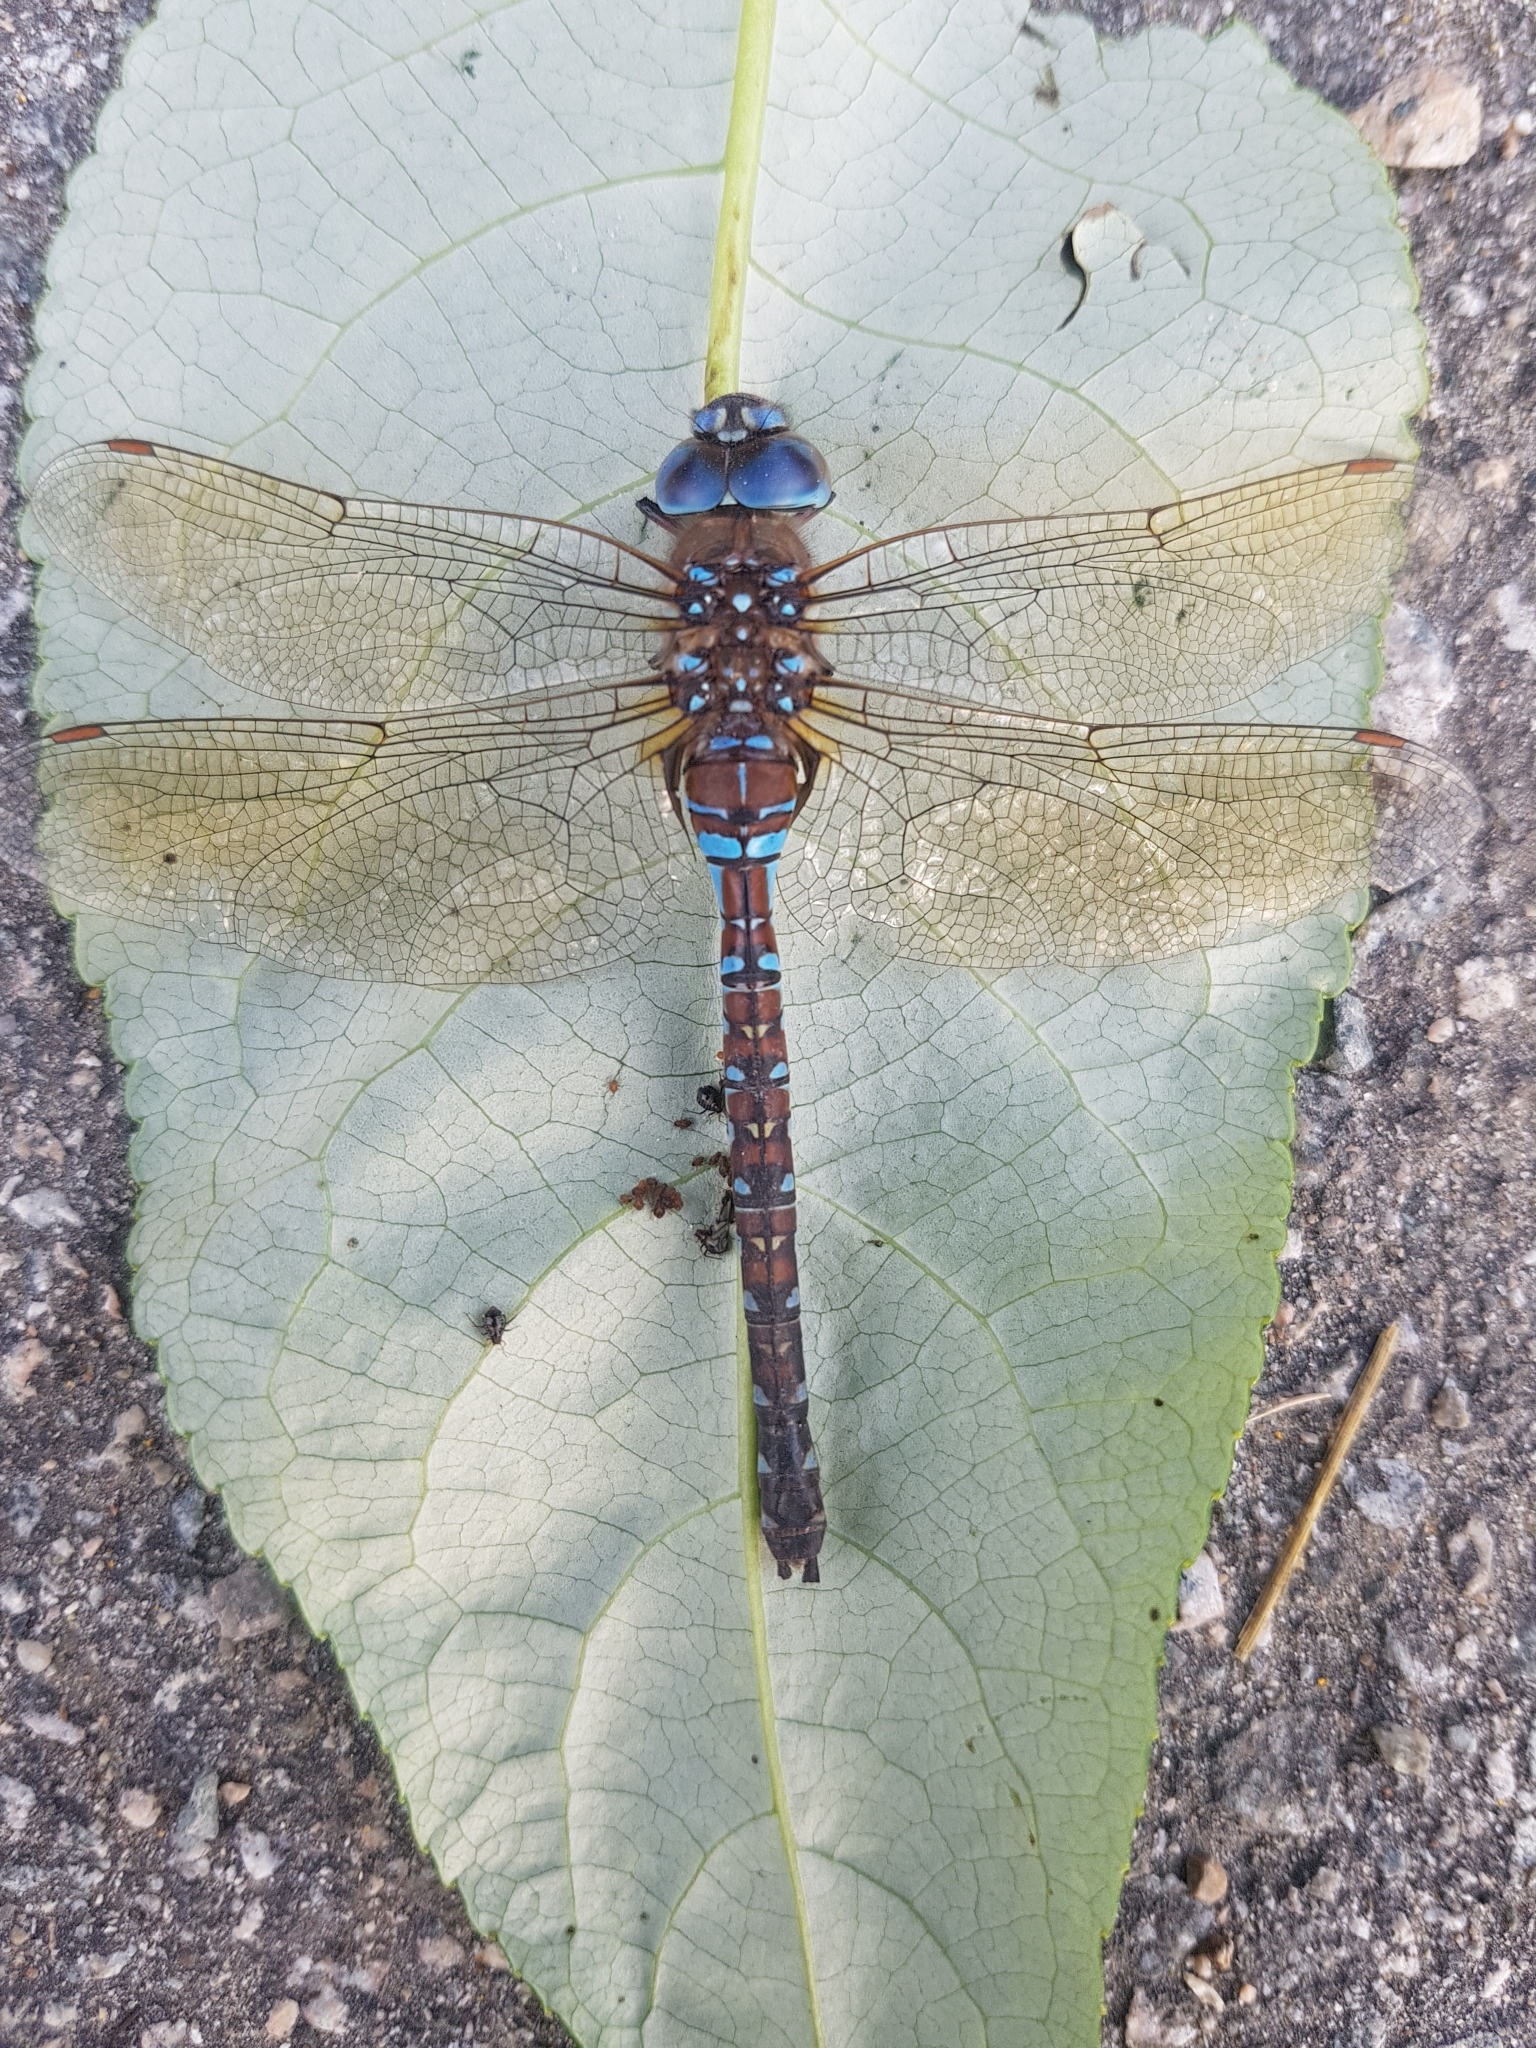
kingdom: Animalia
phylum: Arthropoda
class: Insecta
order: Odonata
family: Aeshnidae
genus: Rhionaeschna
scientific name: Rhionaeschna multicolor
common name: Blue-eyed darner
